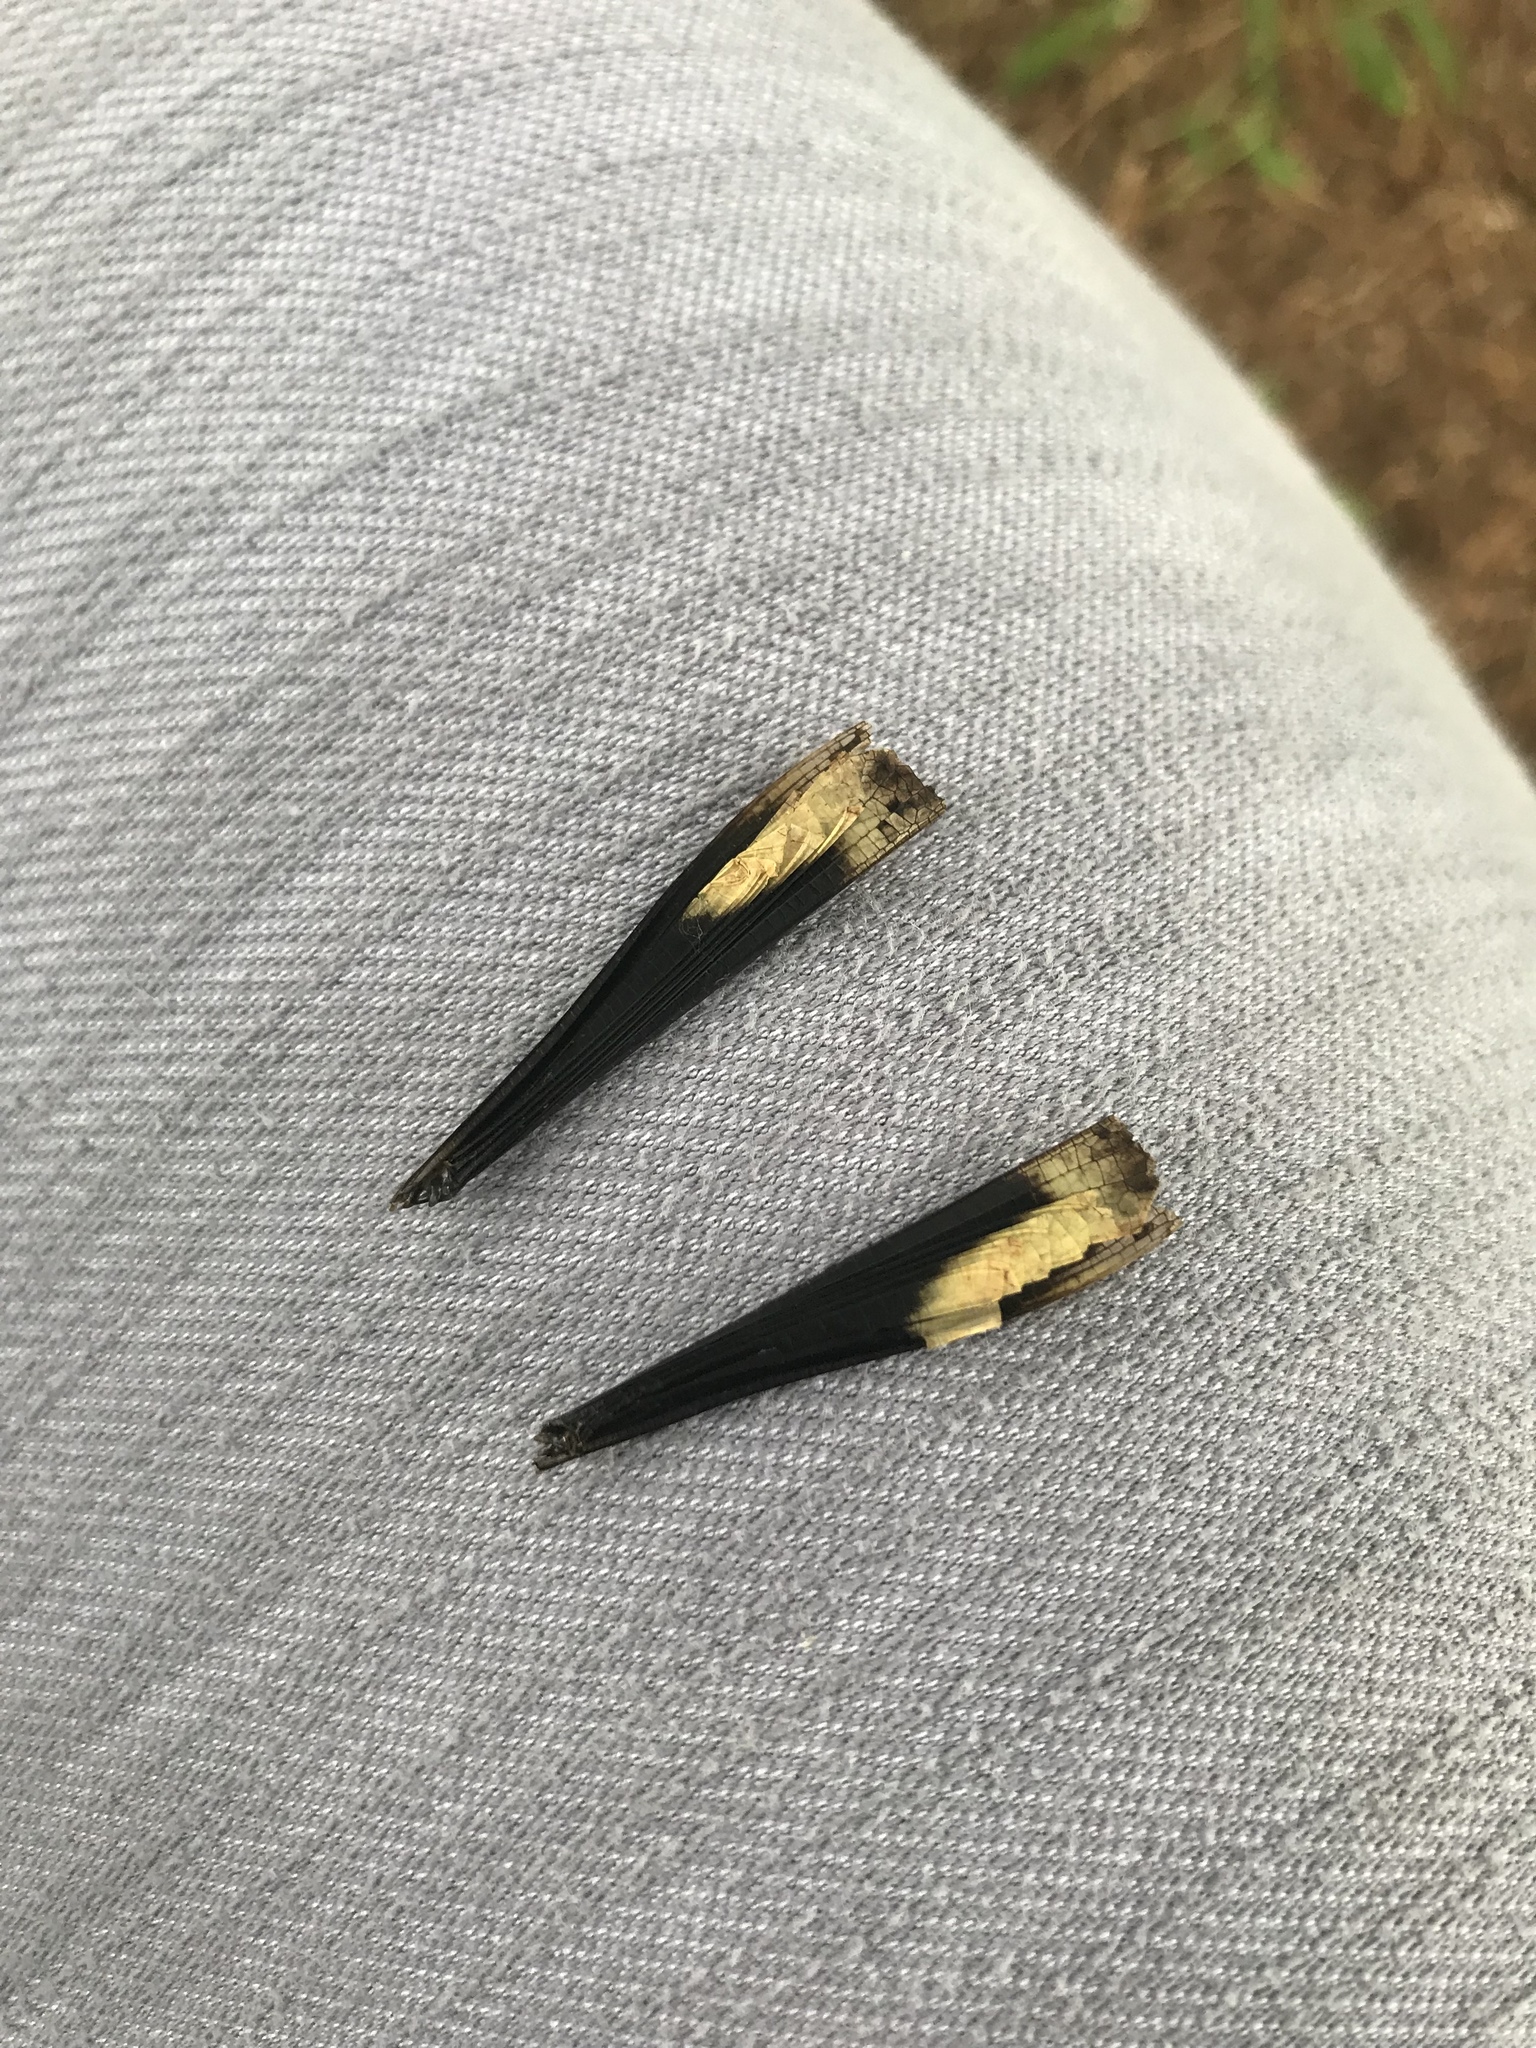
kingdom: Animalia
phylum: Arthropoda
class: Insecta
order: Orthoptera
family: Acrididae
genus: Dissosteira
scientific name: Dissosteira carolina
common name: Carolina grasshopper
